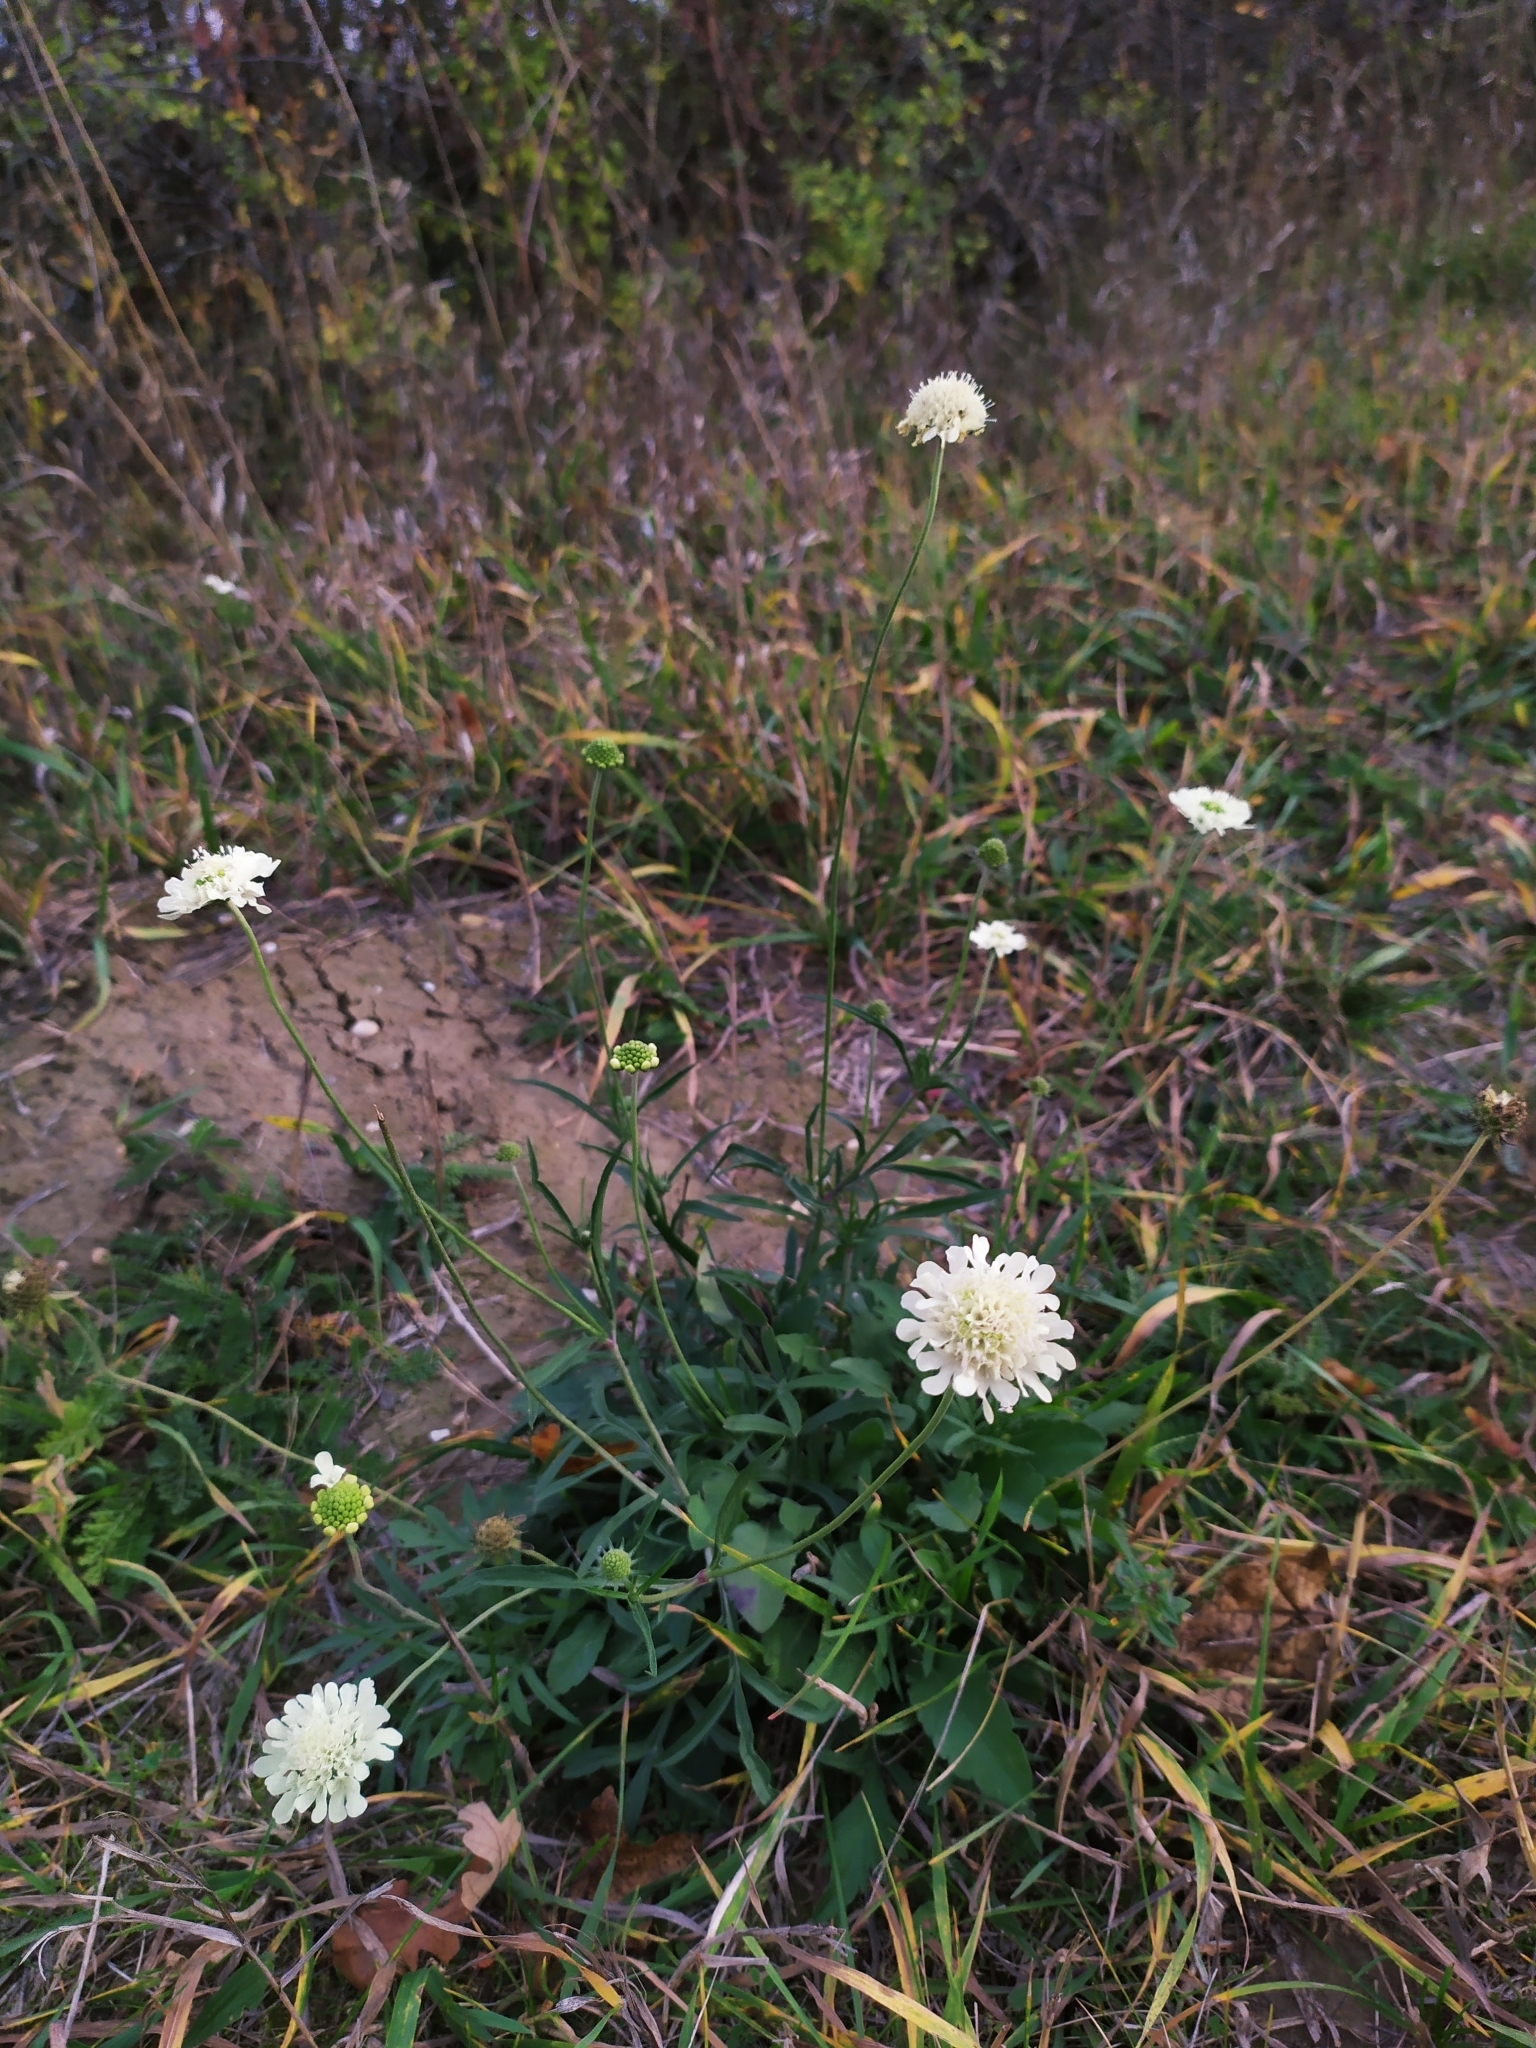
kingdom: Plantae
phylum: Tracheophyta
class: Magnoliopsida
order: Dipsacales
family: Caprifoliaceae
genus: Scabiosa
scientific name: Scabiosa ochroleuca
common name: Cream pincushions
